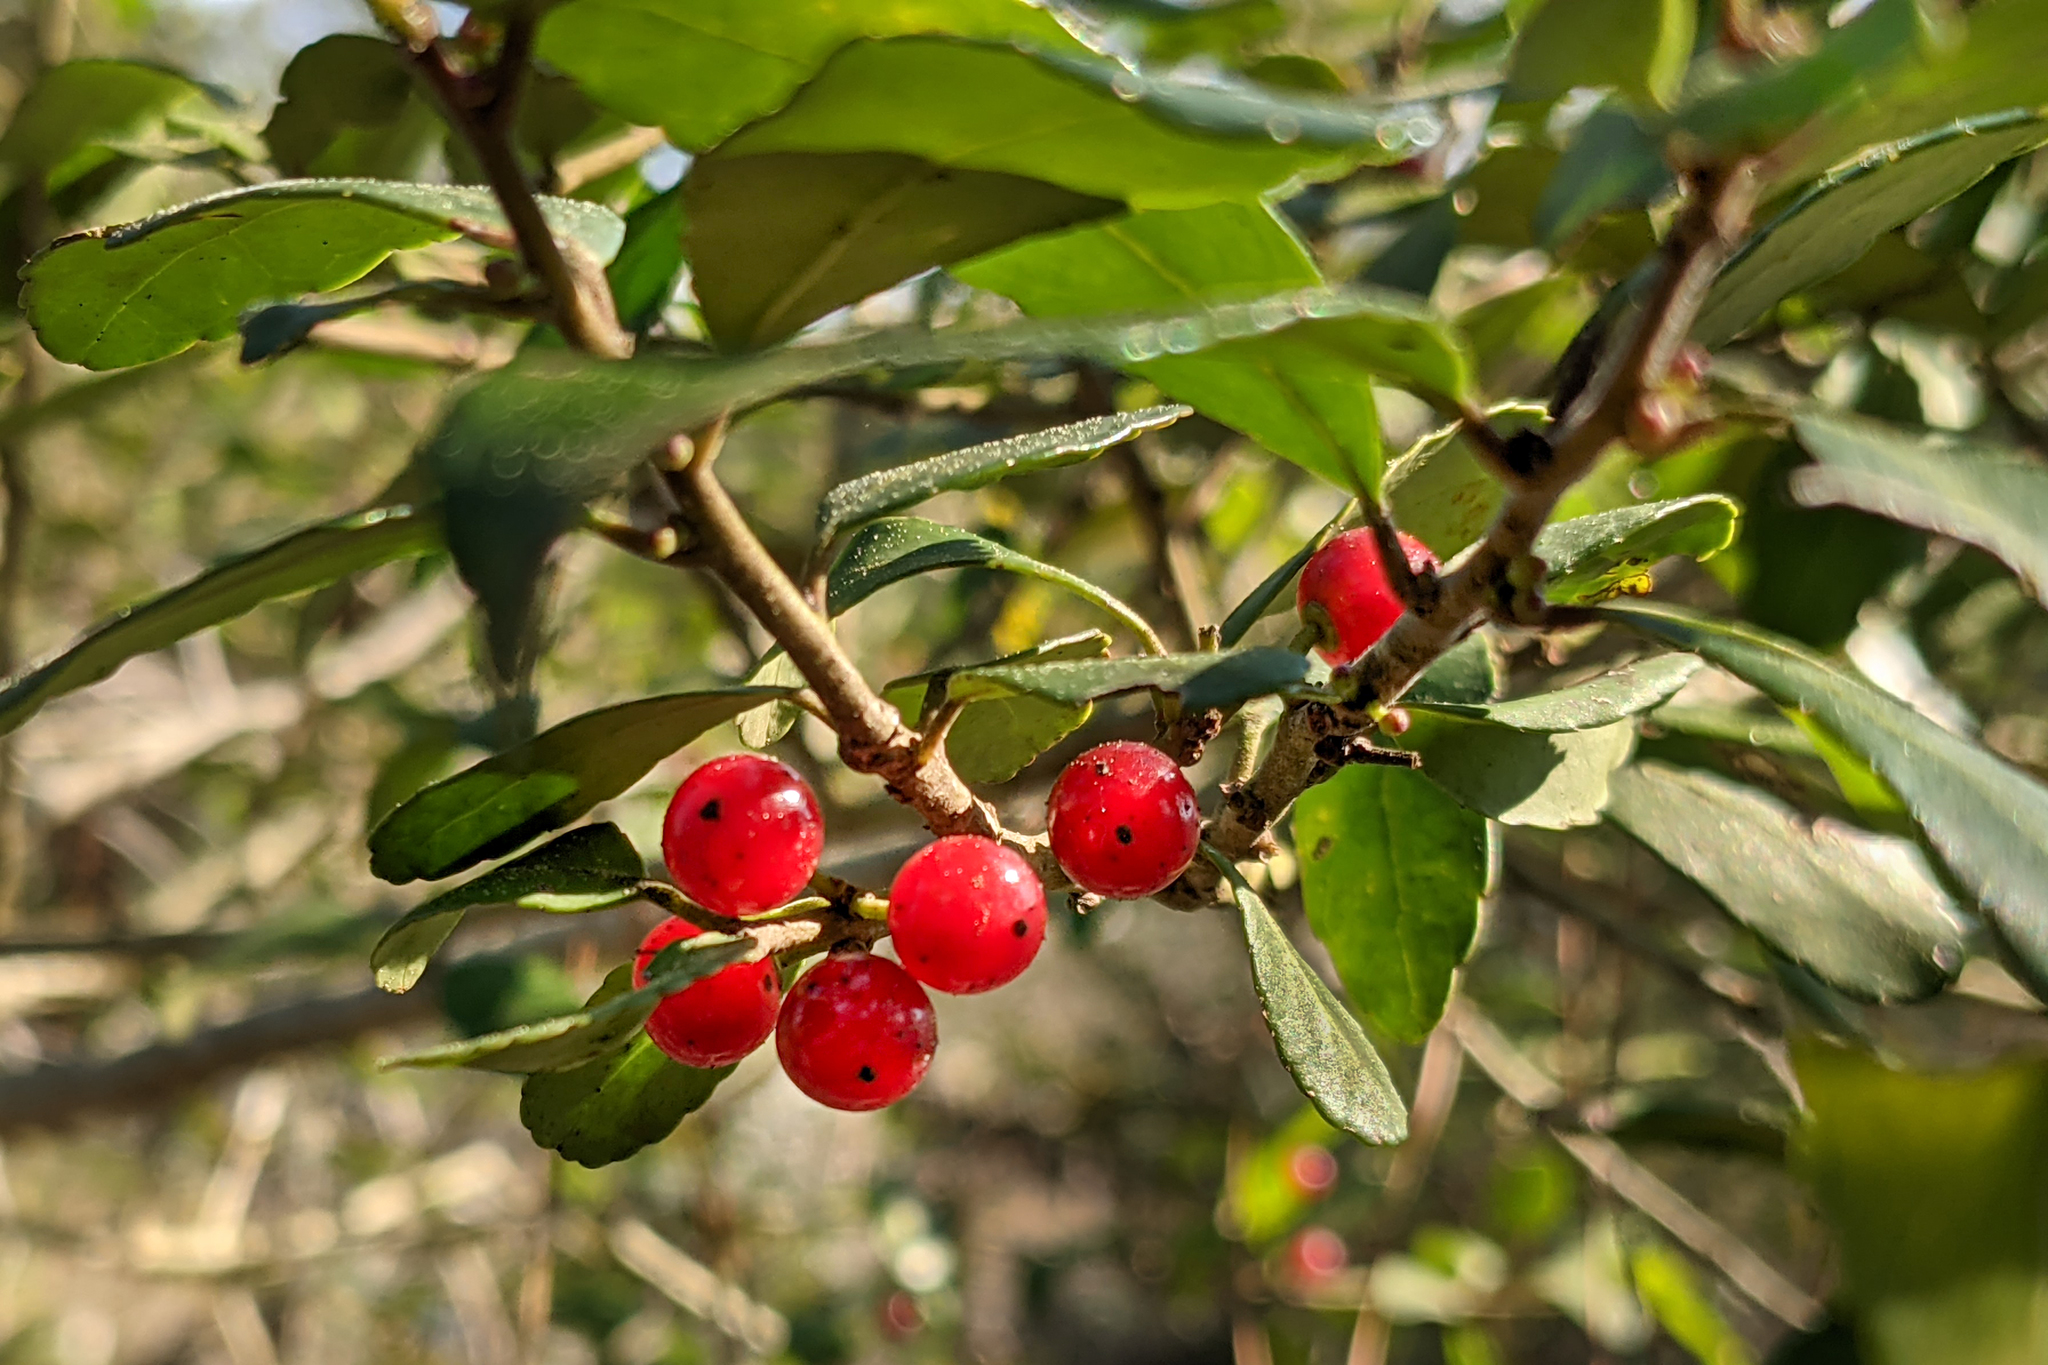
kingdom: Plantae
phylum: Tracheophyta
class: Magnoliopsida
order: Aquifoliales
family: Aquifoliaceae
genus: Ilex
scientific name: Ilex vomitoria
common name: Yaupon holly
